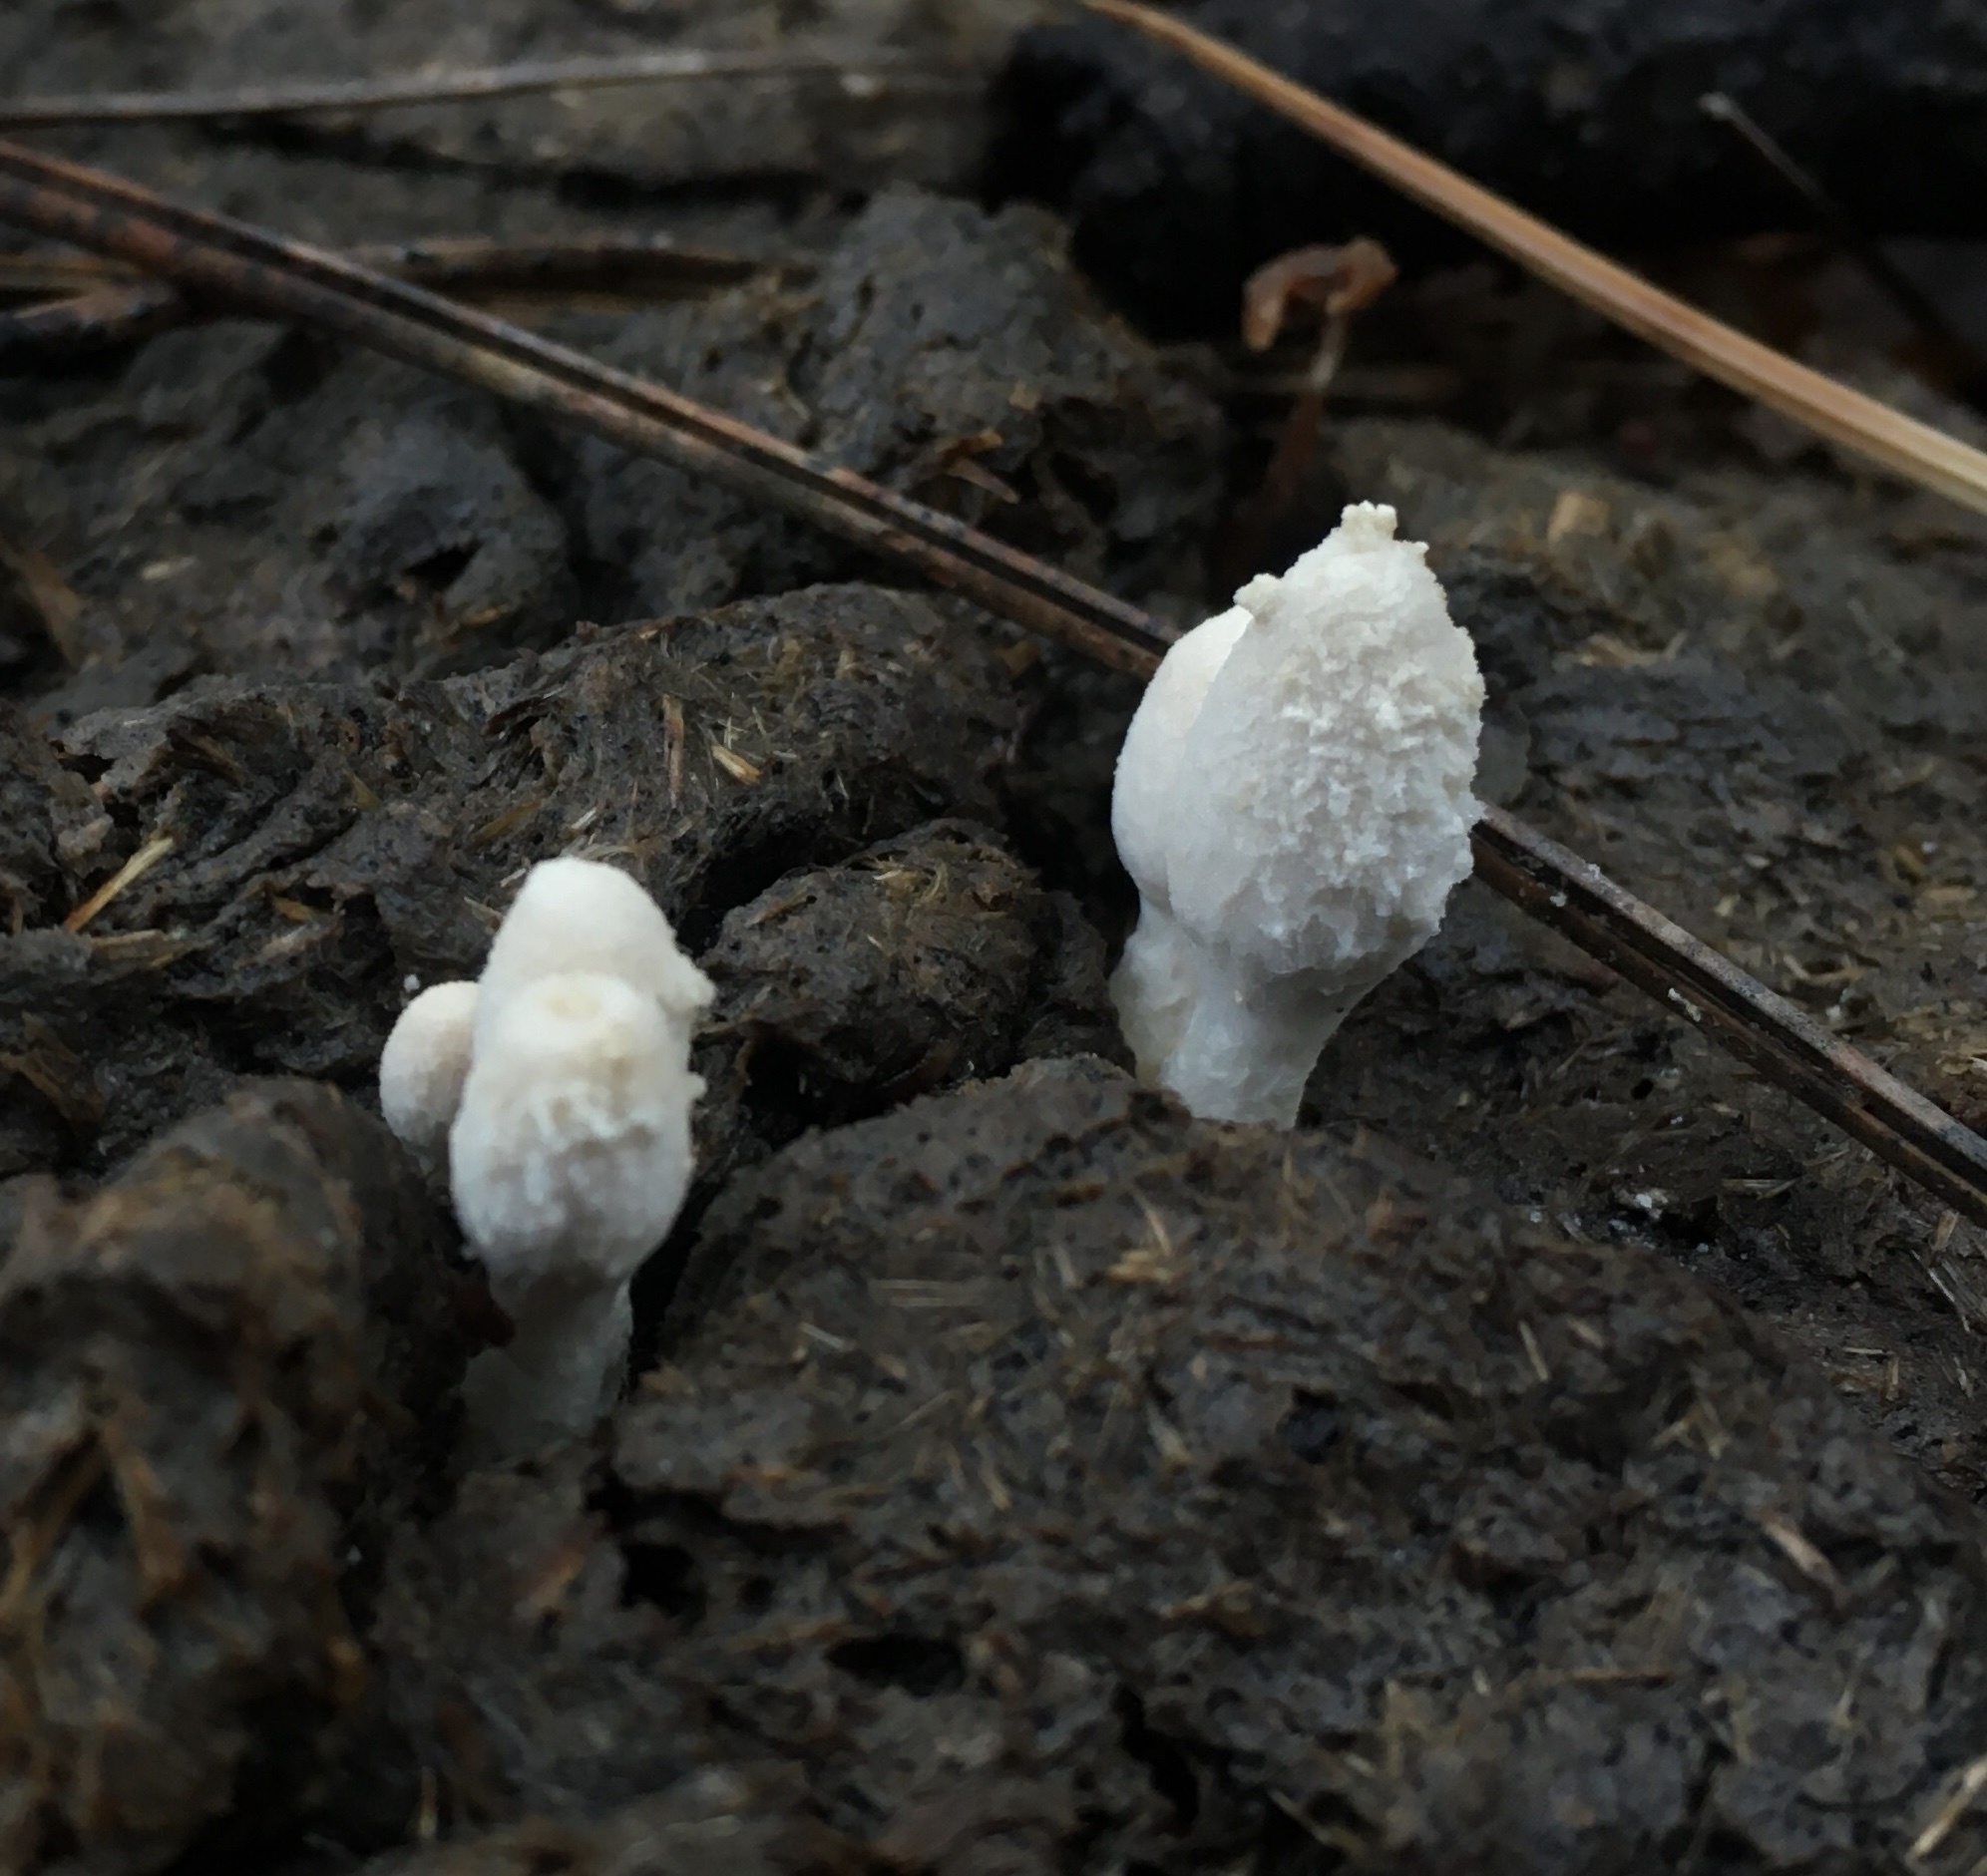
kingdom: Fungi
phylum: Basidiomycota
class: Agaricomycetes
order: Agaricales
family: Psathyrellaceae
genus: Coprinopsis
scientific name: Coprinopsis nivea
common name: Snowy inkcap
